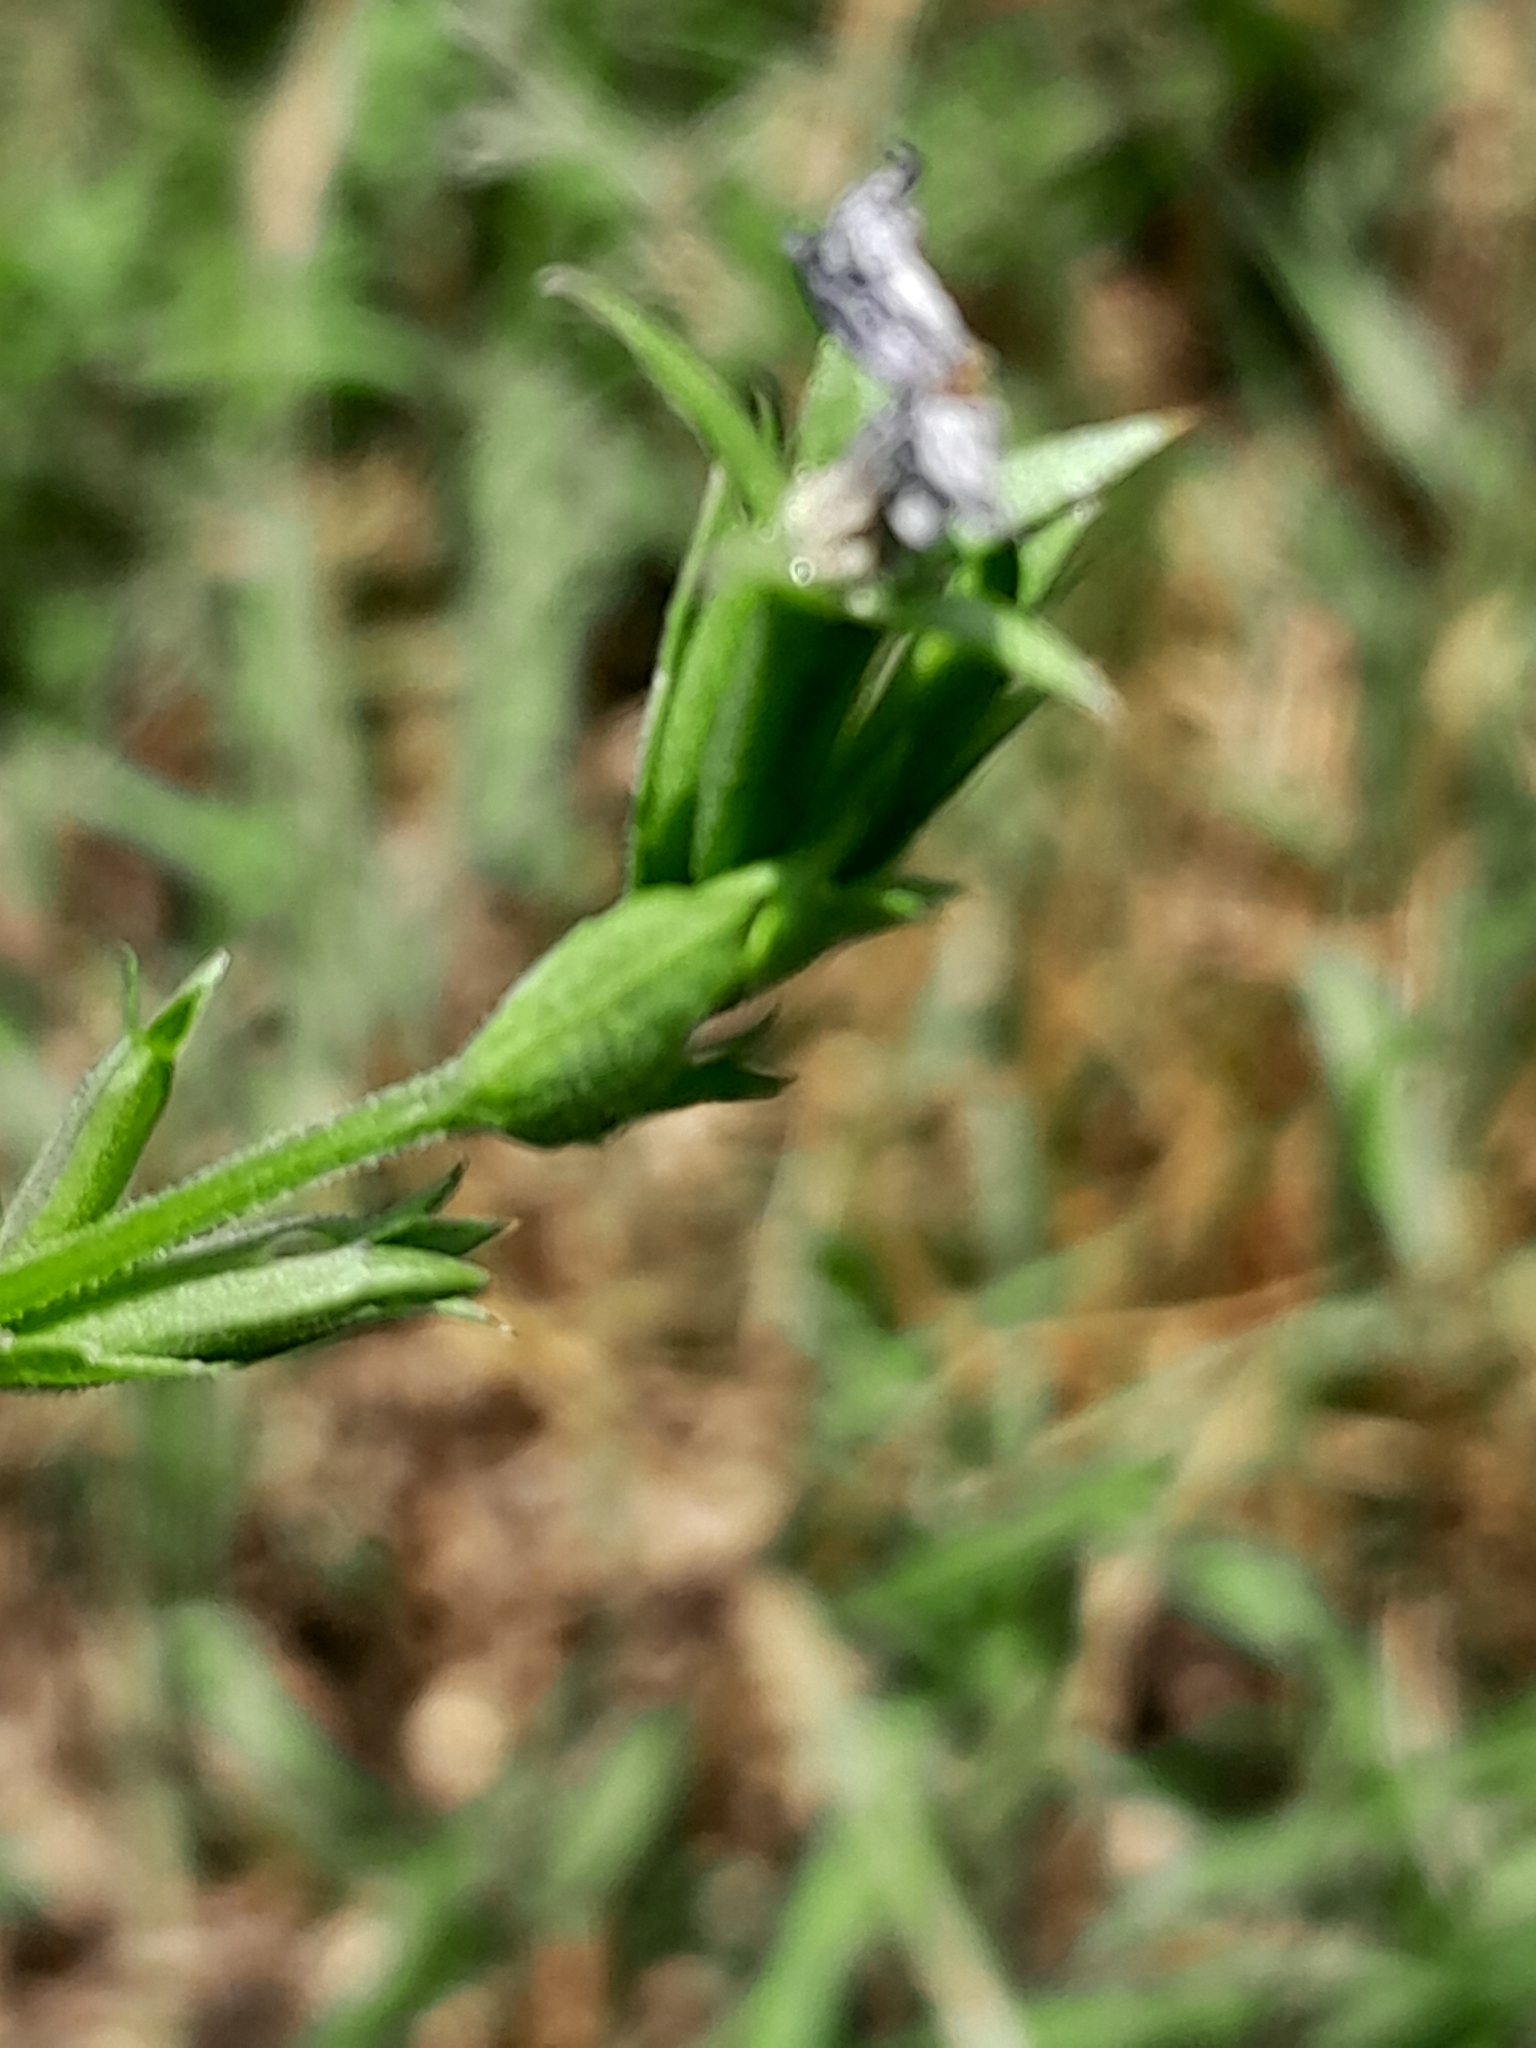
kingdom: Plantae
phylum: Tracheophyta
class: Magnoliopsida
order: Asterales
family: Campanulaceae
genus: Triodanis
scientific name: Triodanis biflora
